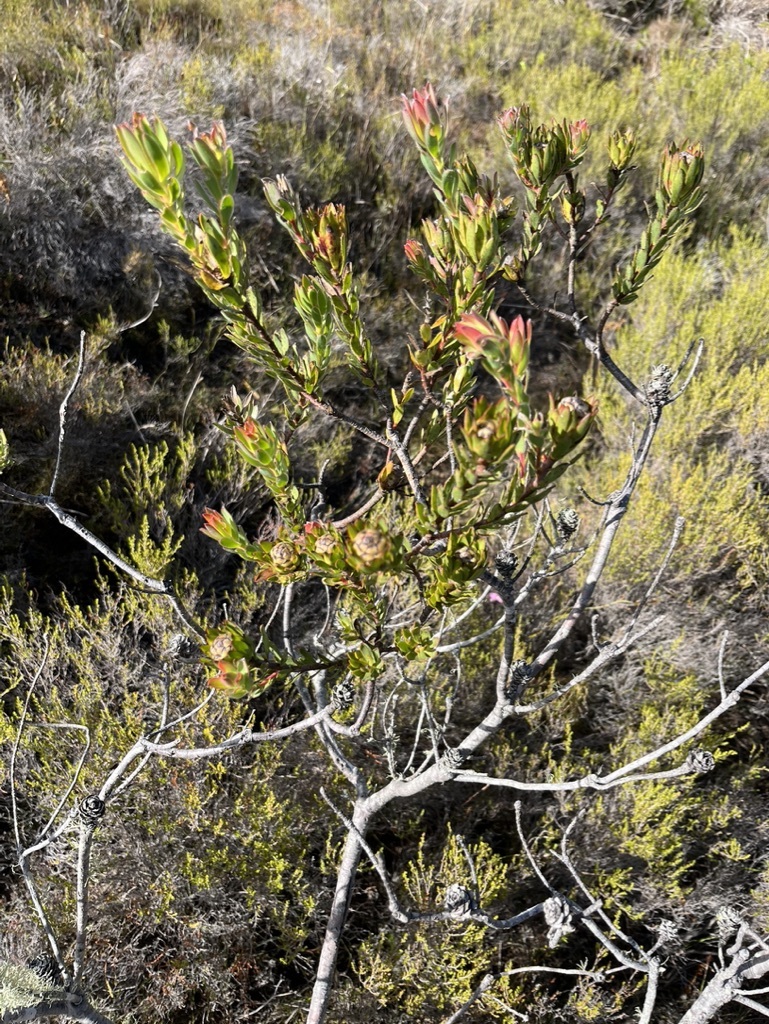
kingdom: Plantae
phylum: Tracheophyta
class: Magnoliopsida
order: Proteales
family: Proteaceae
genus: Leucadendron
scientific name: Leucadendron stelligerum
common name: Agulhas conebush
